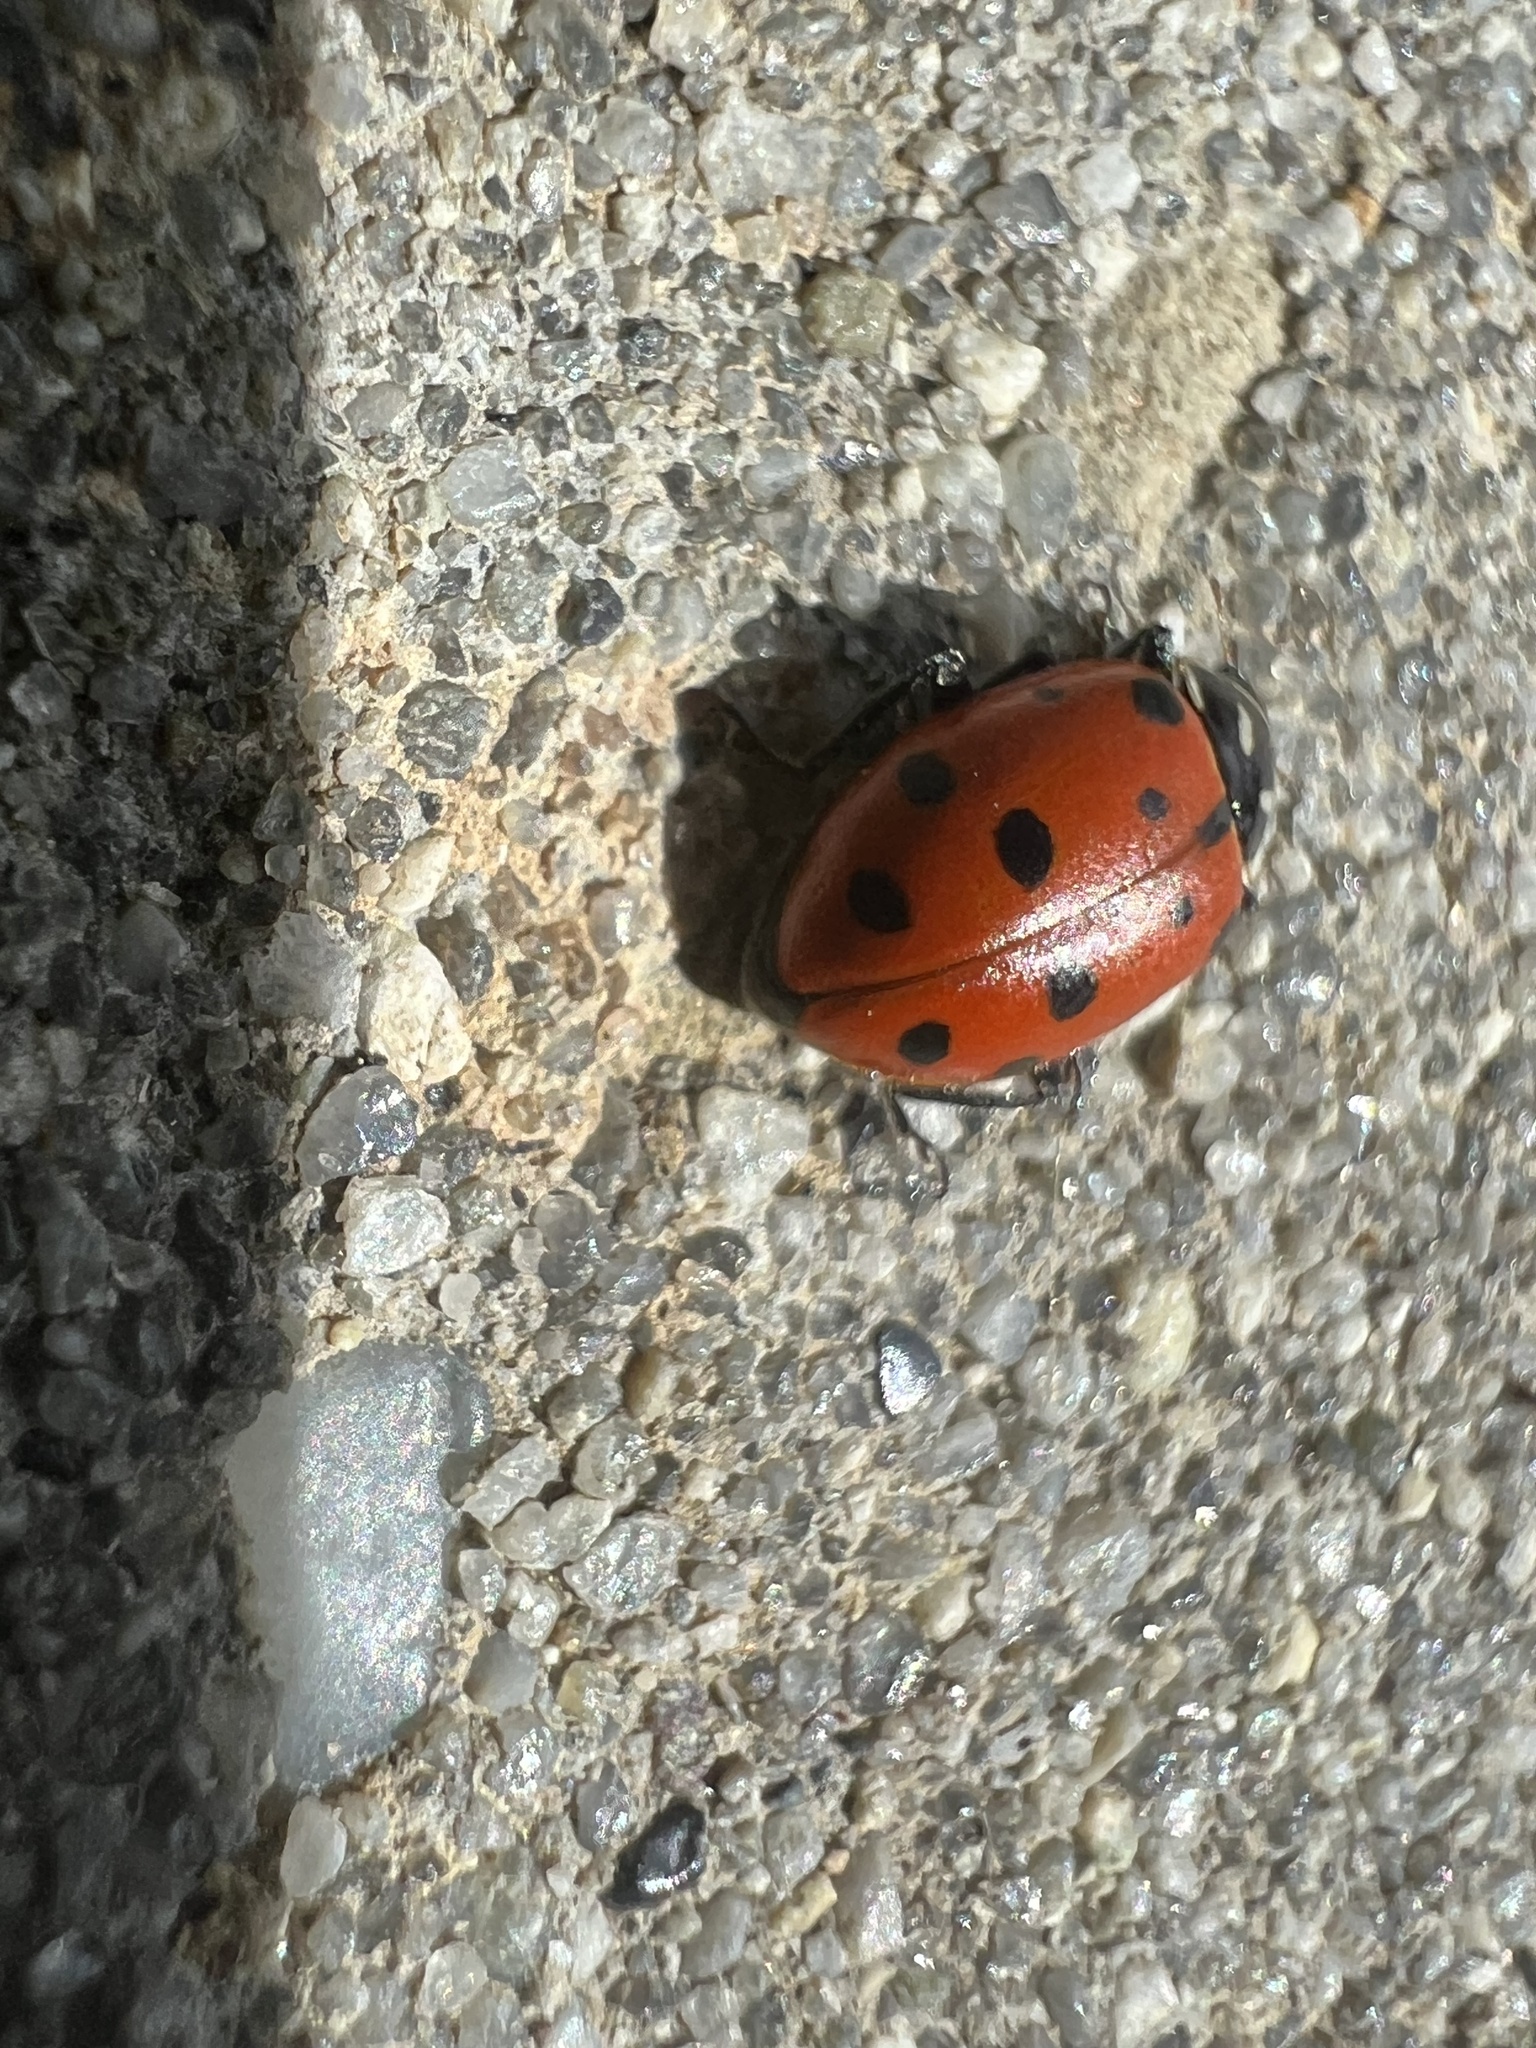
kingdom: Animalia
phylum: Arthropoda
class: Insecta
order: Coleoptera
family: Coccinellidae
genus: Hippodamia
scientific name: Hippodamia convergens
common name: Convergent lady beetle
